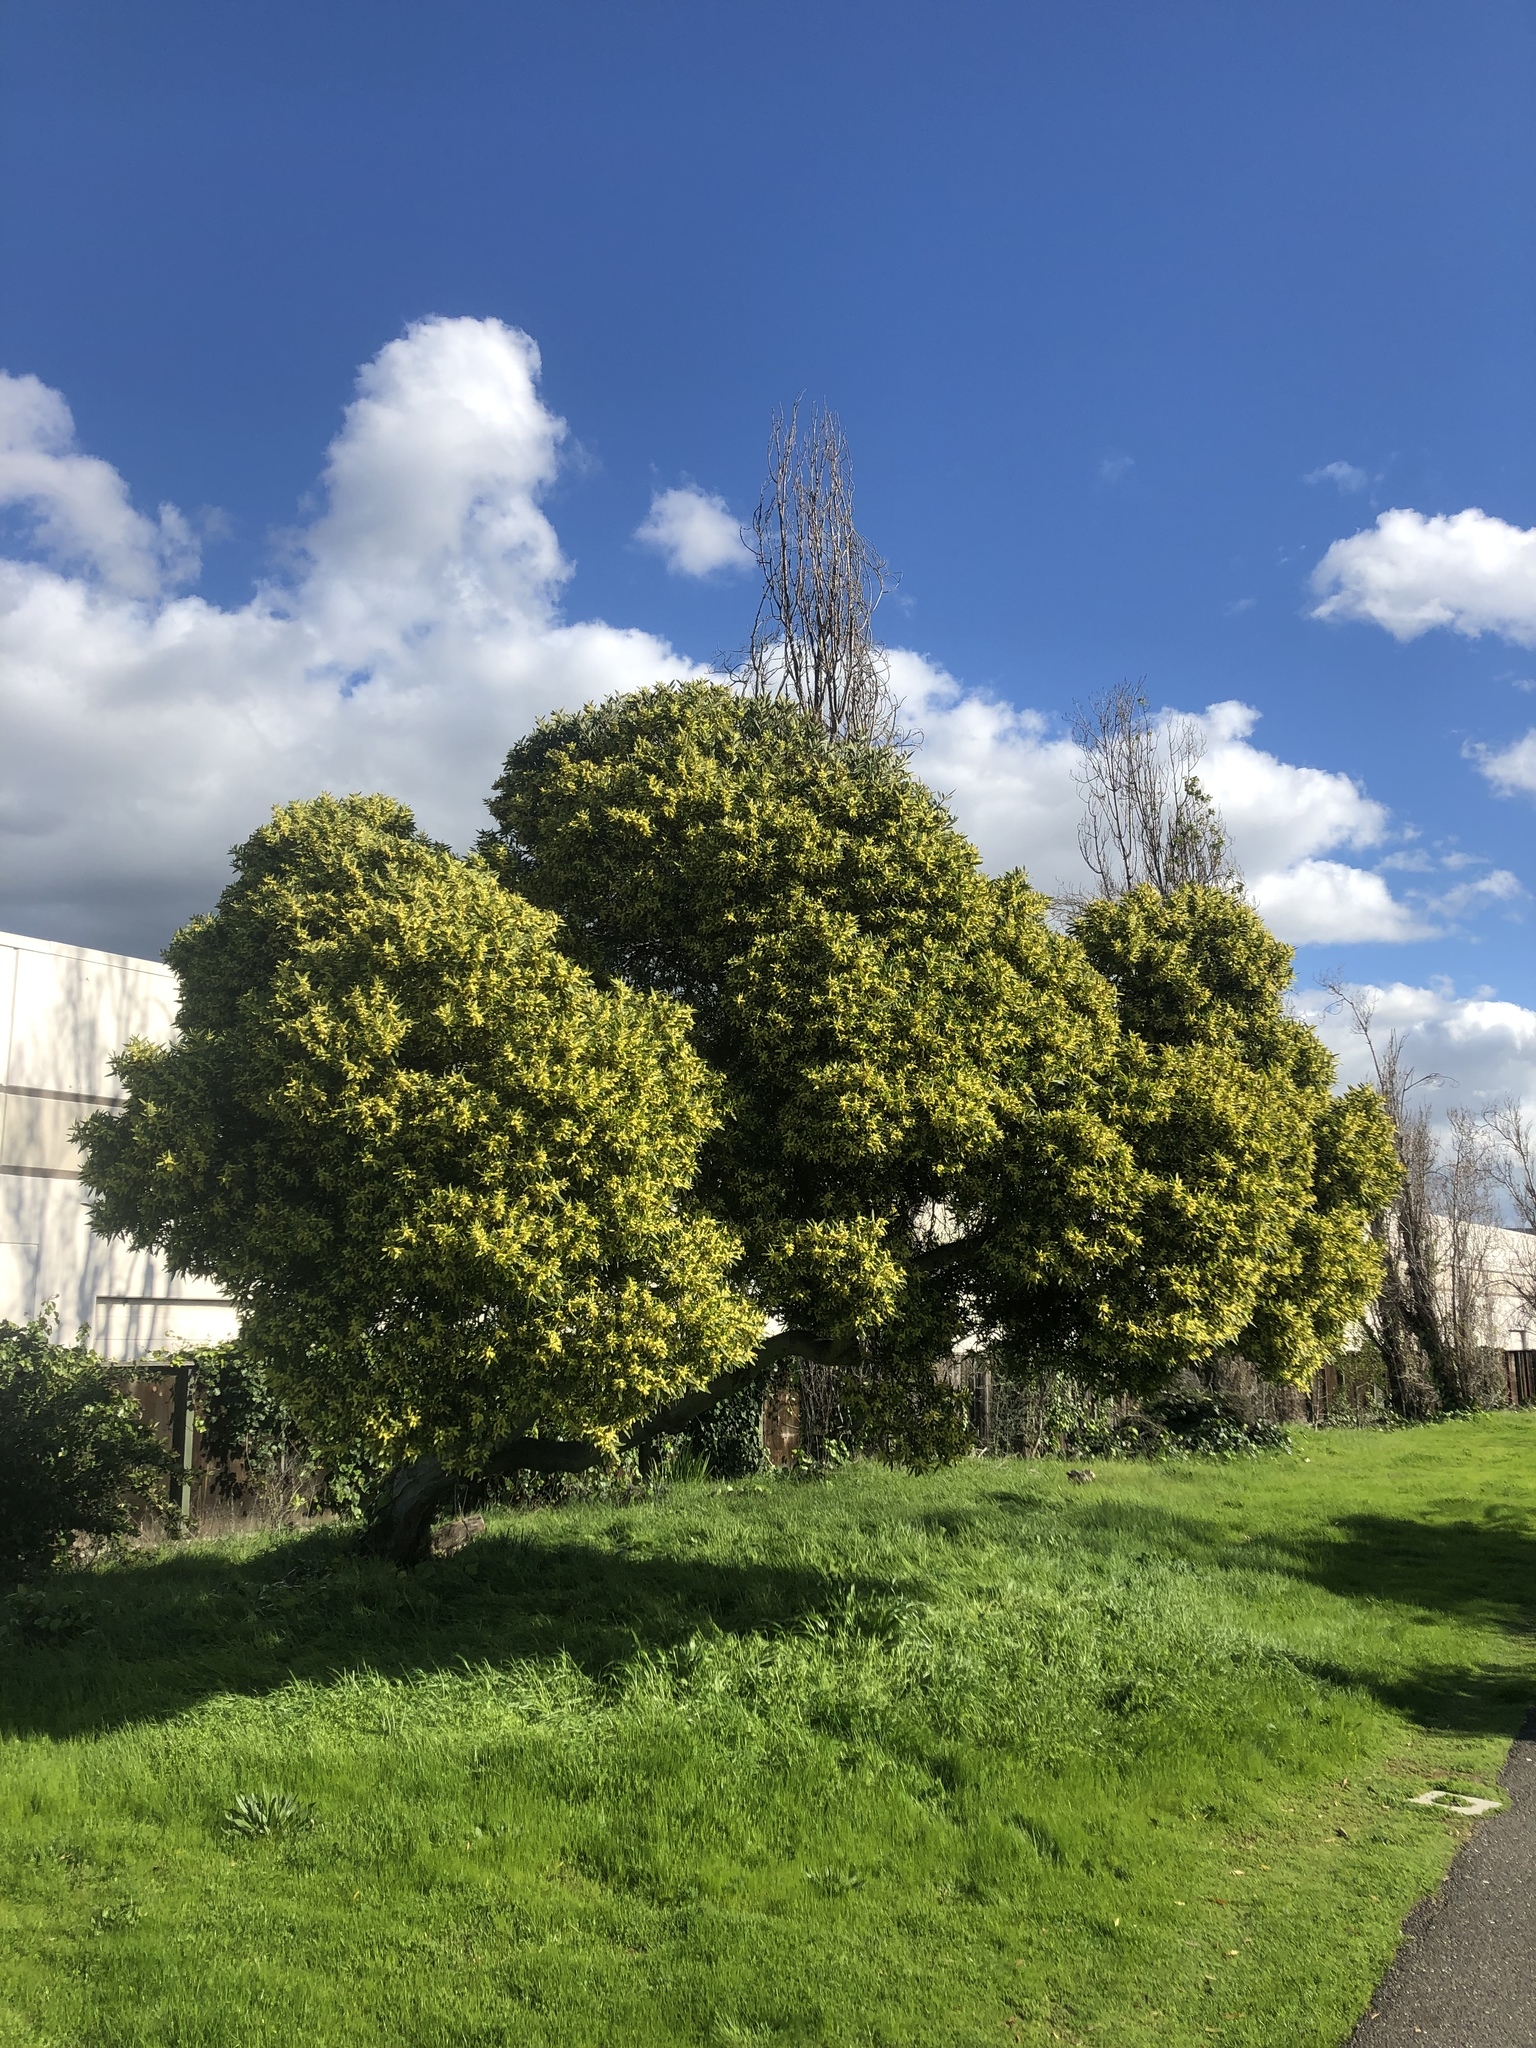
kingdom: Animalia
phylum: Chordata
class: Aves
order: Passeriformes
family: Aegithalidae
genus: Psaltriparus
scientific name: Psaltriparus minimus
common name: American bushtit
